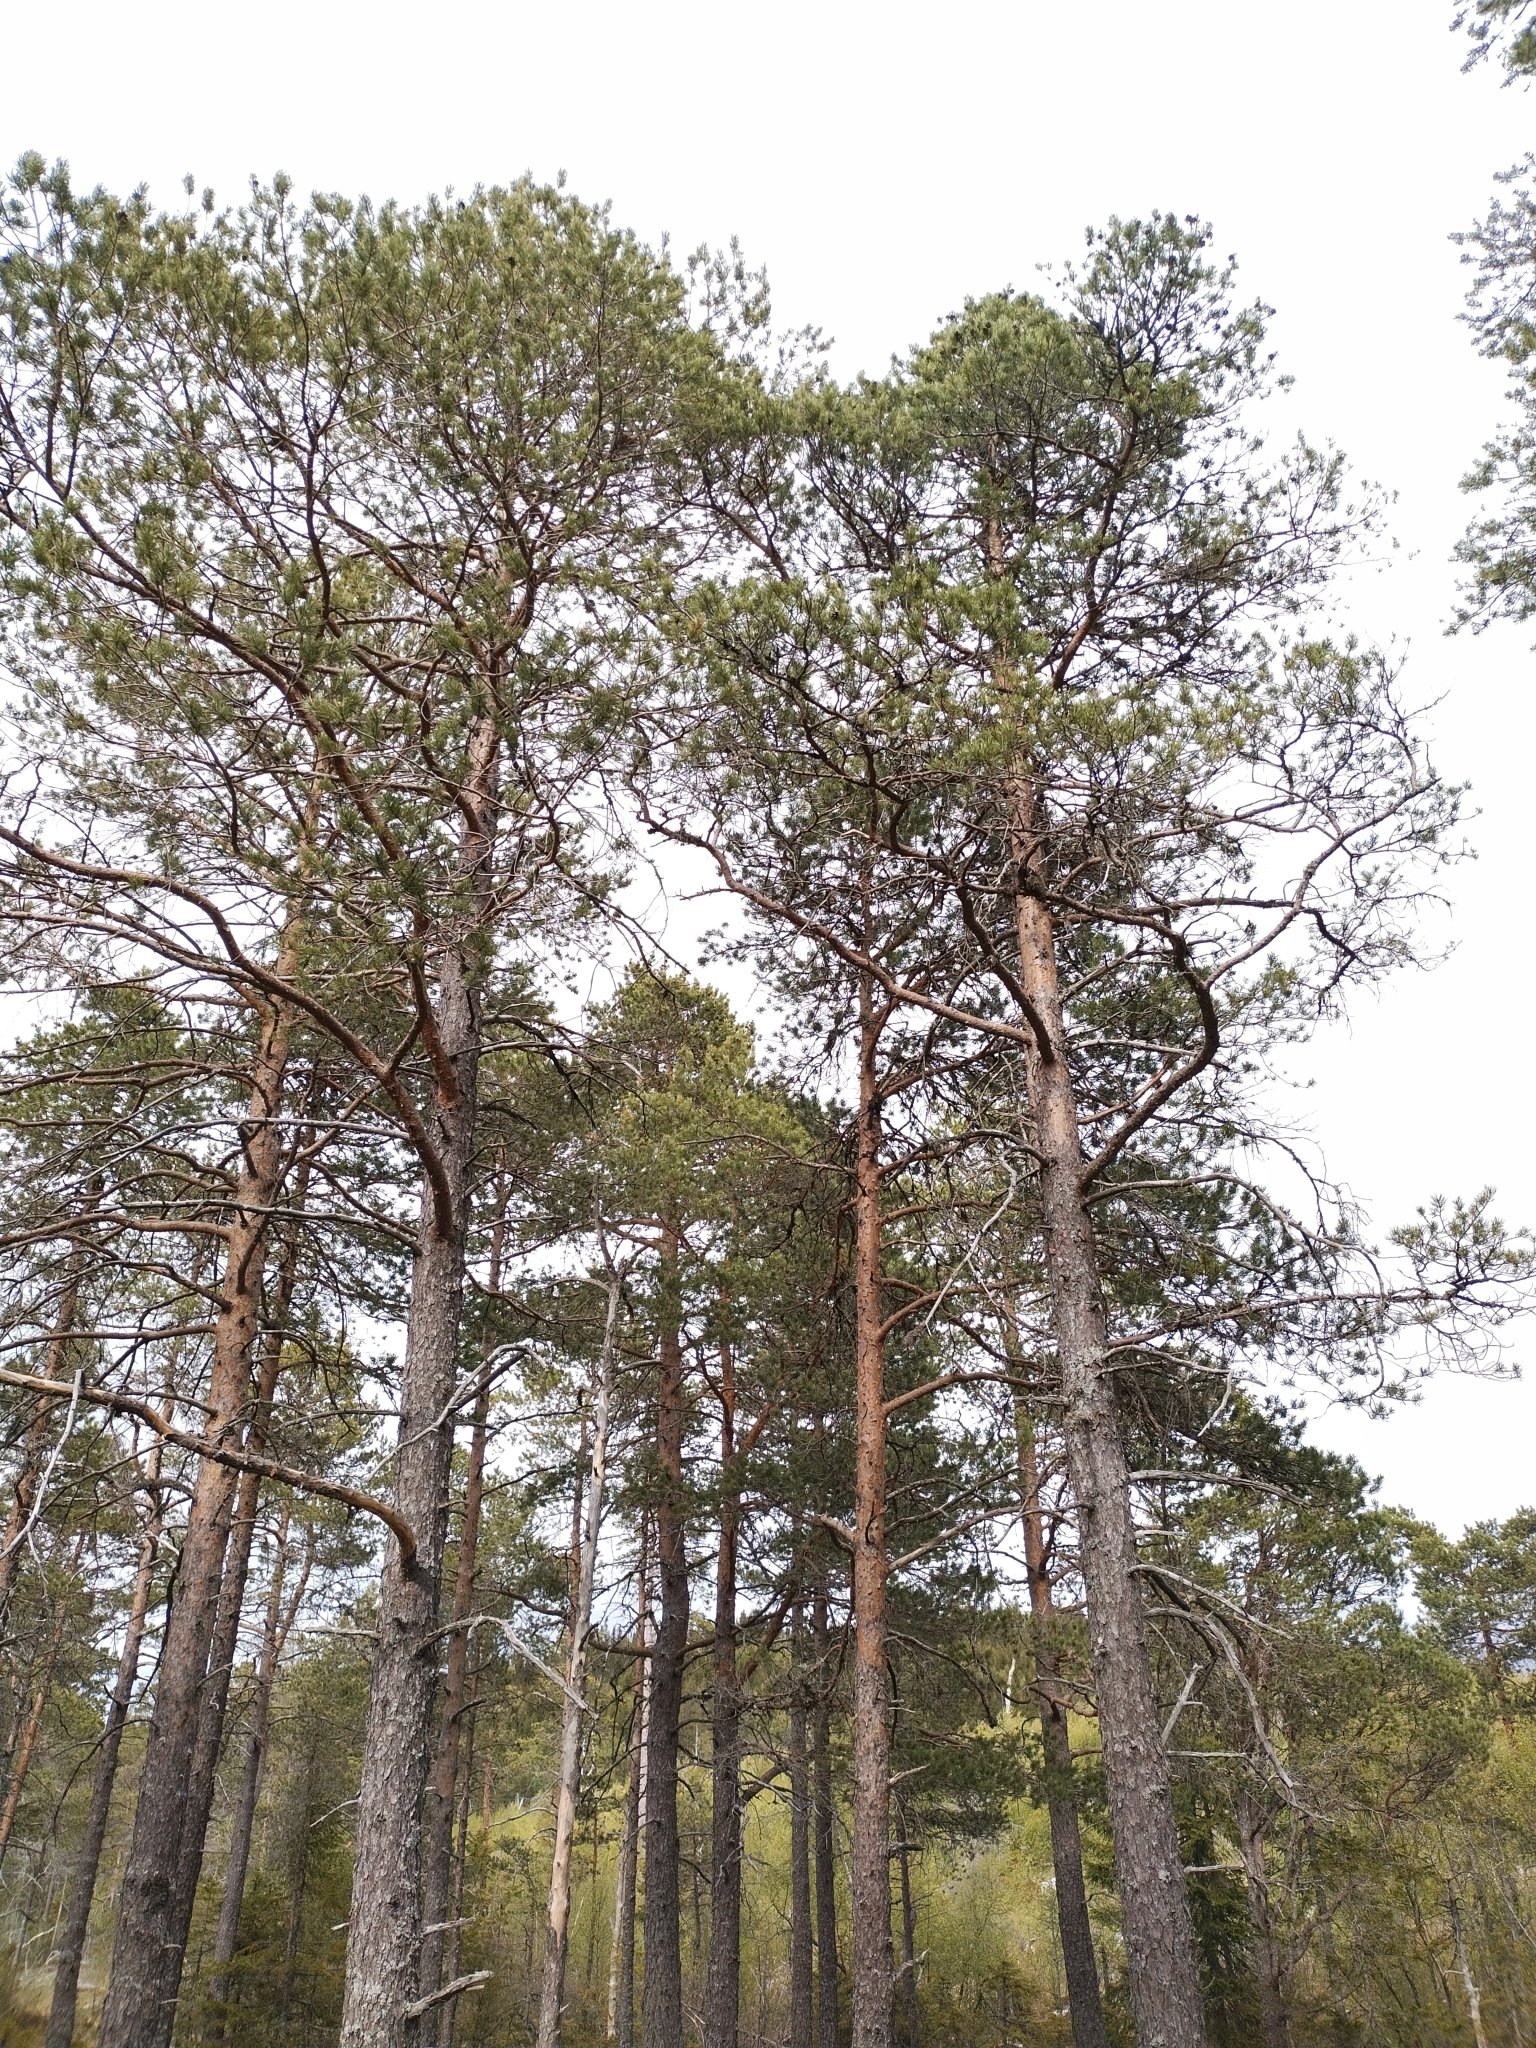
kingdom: Plantae
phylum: Tracheophyta
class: Pinopsida
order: Pinales
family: Pinaceae
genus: Pinus
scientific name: Pinus sylvestris
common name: Scots pine
